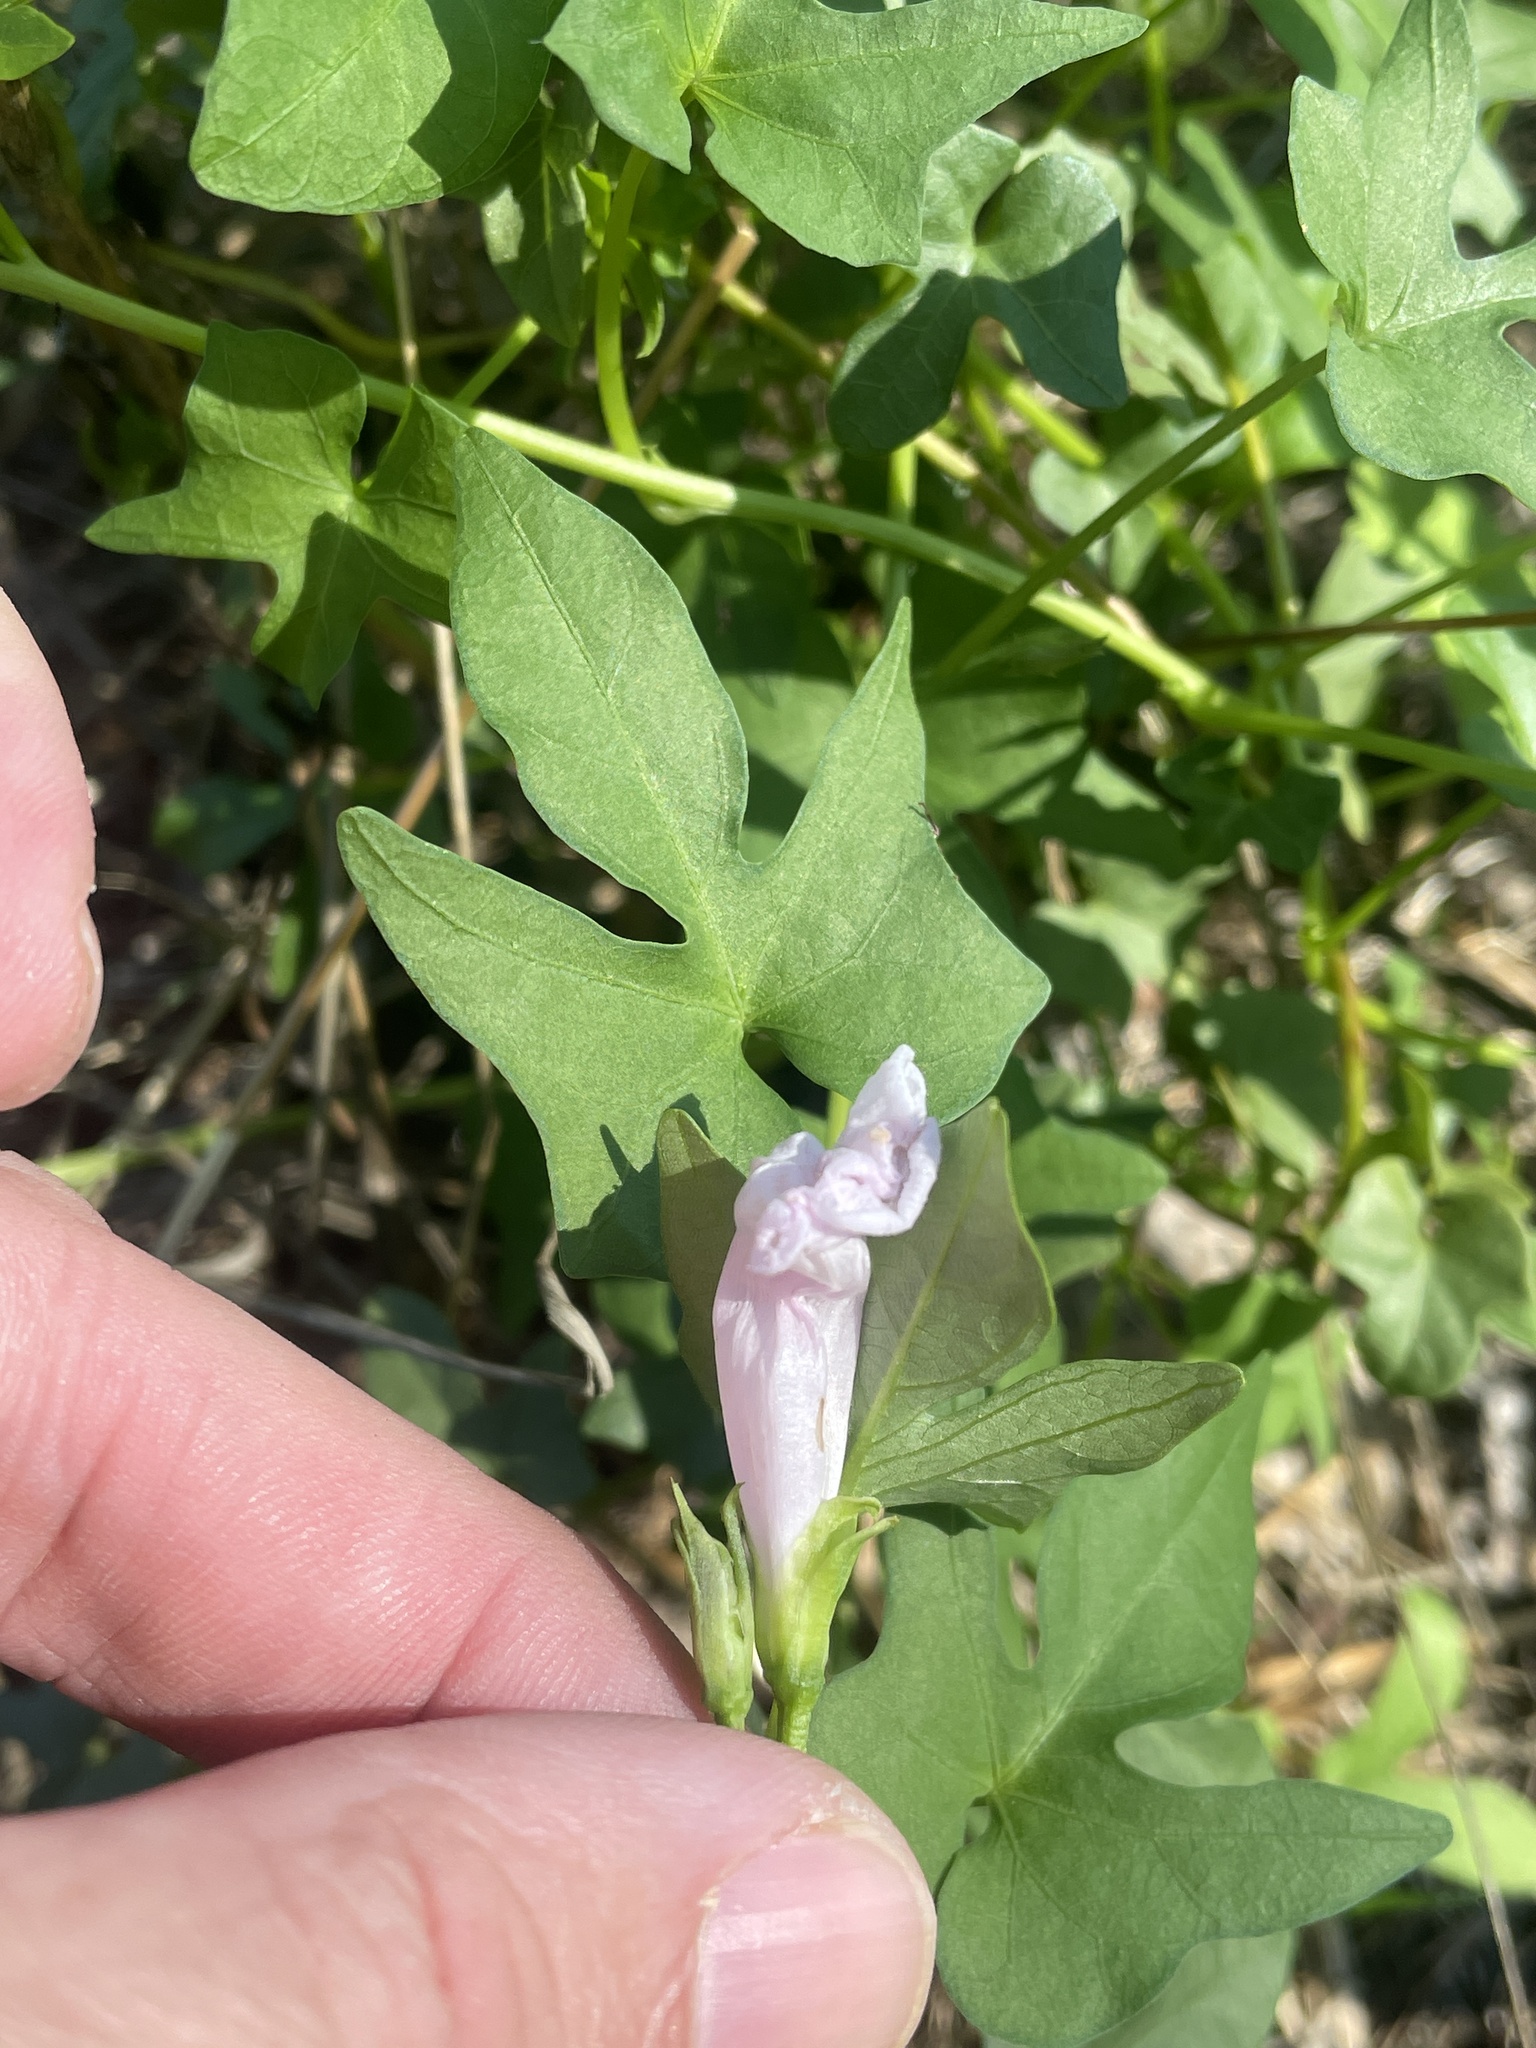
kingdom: Plantae
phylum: Tracheophyta
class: Magnoliopsida
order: Solanales
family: Convolvulaceae
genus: Ipomoea
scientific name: Ipomoea cordatotriloba
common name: Cotton morning glory
